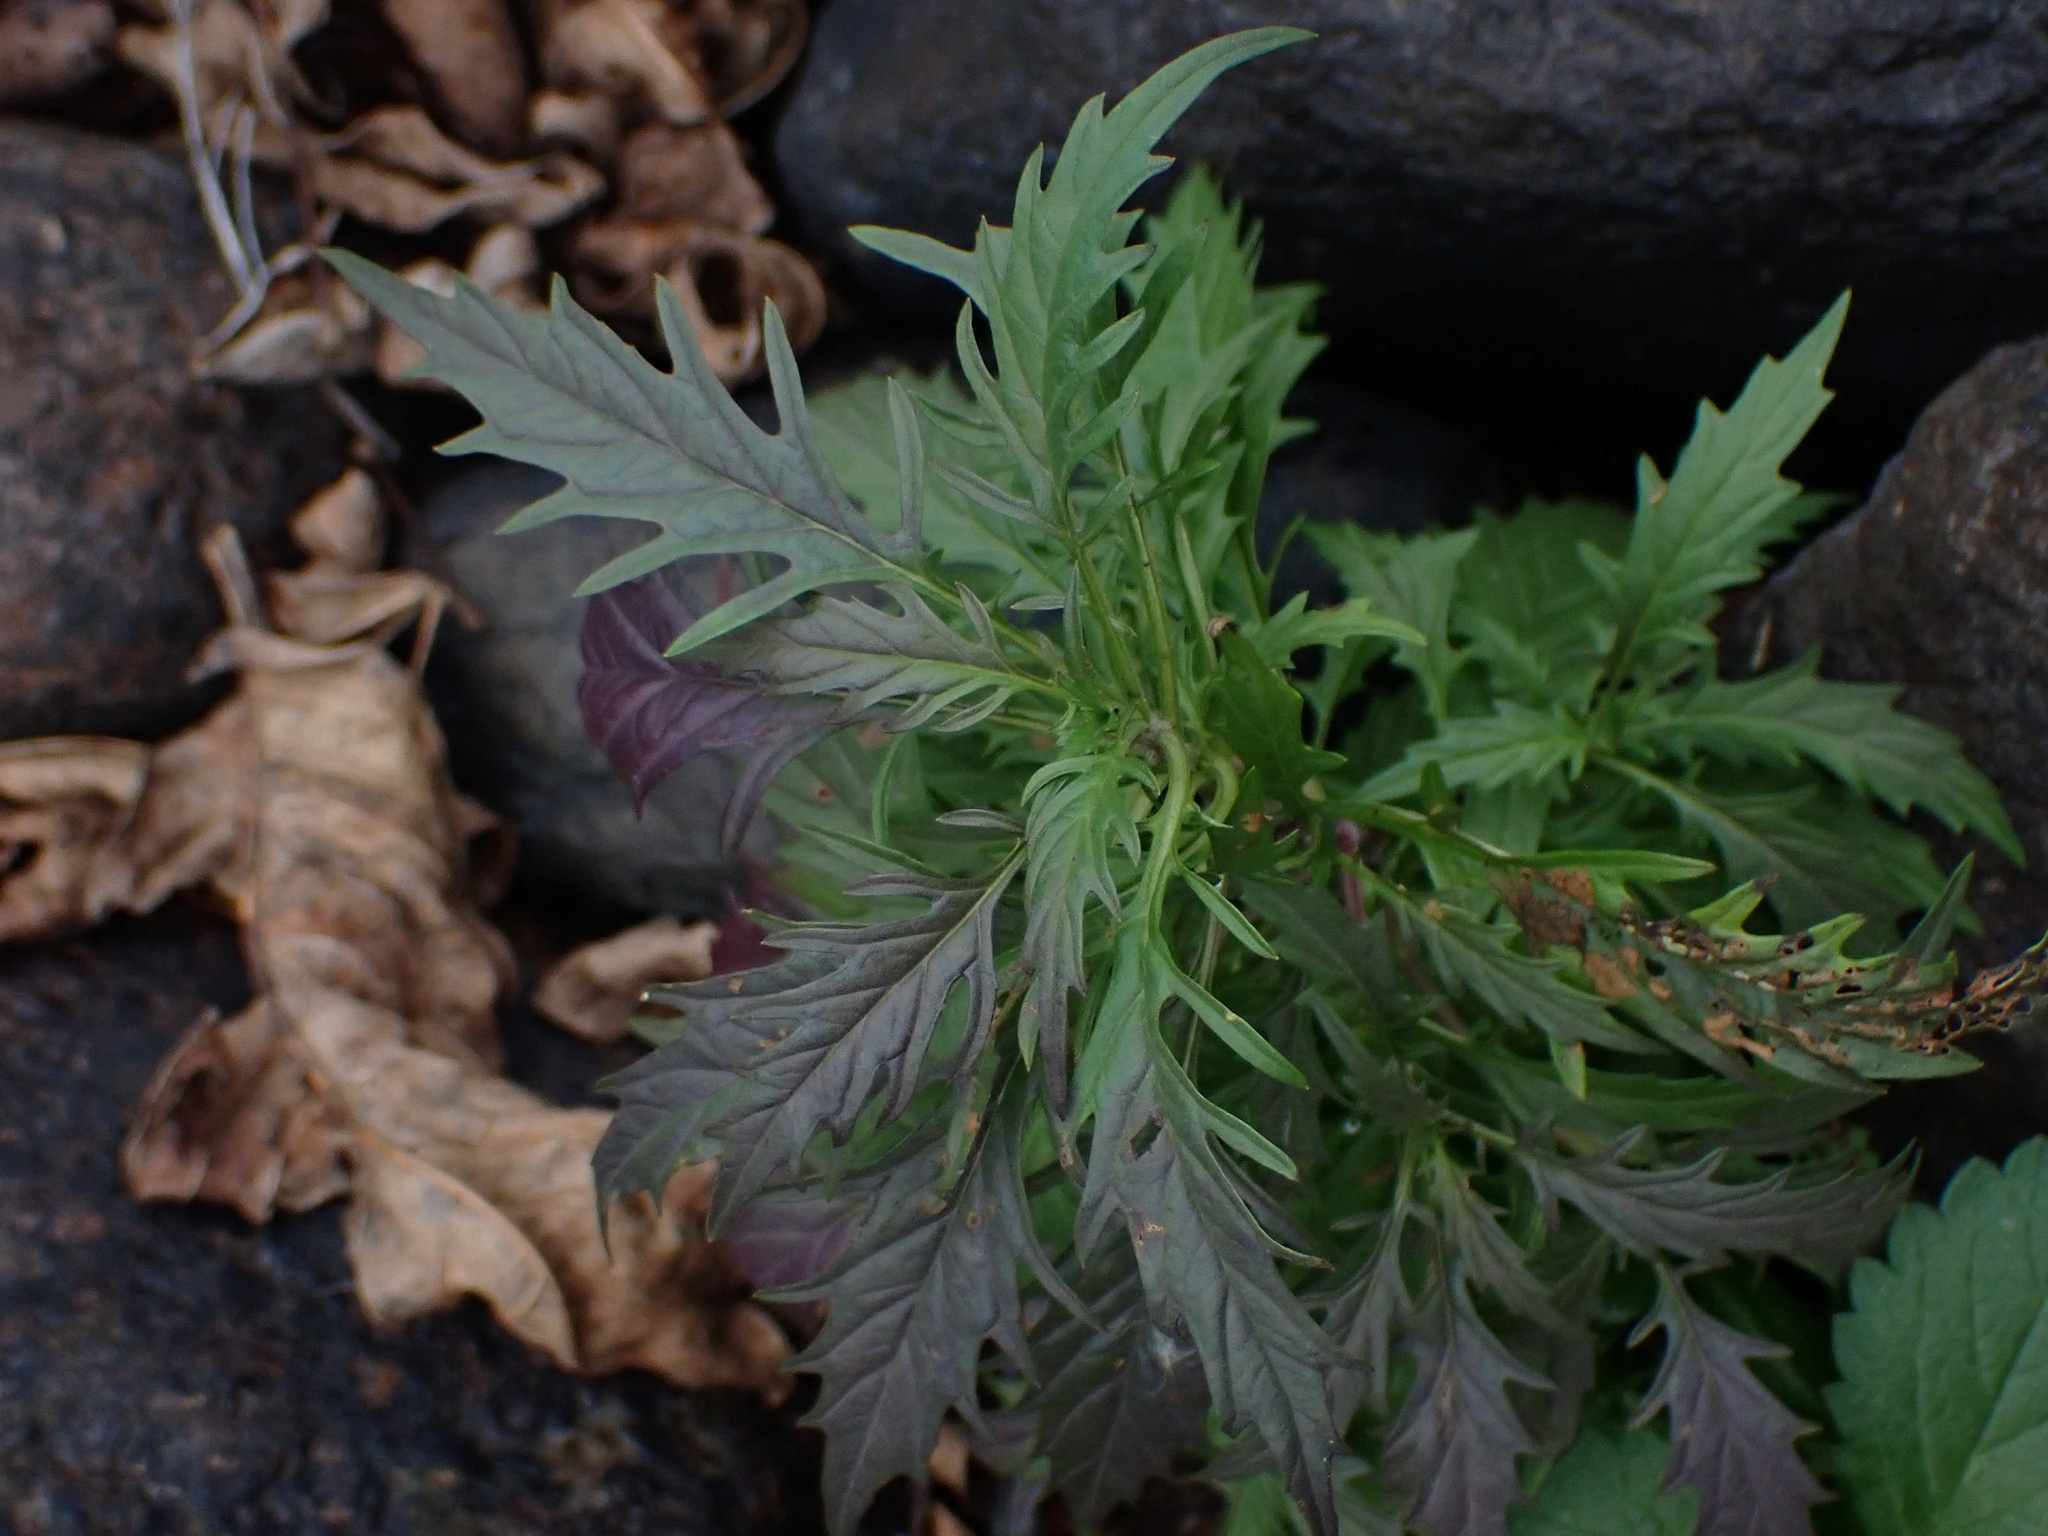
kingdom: Plantae
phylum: Tracheophyta
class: Magnoliopsida
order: Lamiales
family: Lamiaceae
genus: Lycopus
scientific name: Lycopus americanus
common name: American bugleweed
